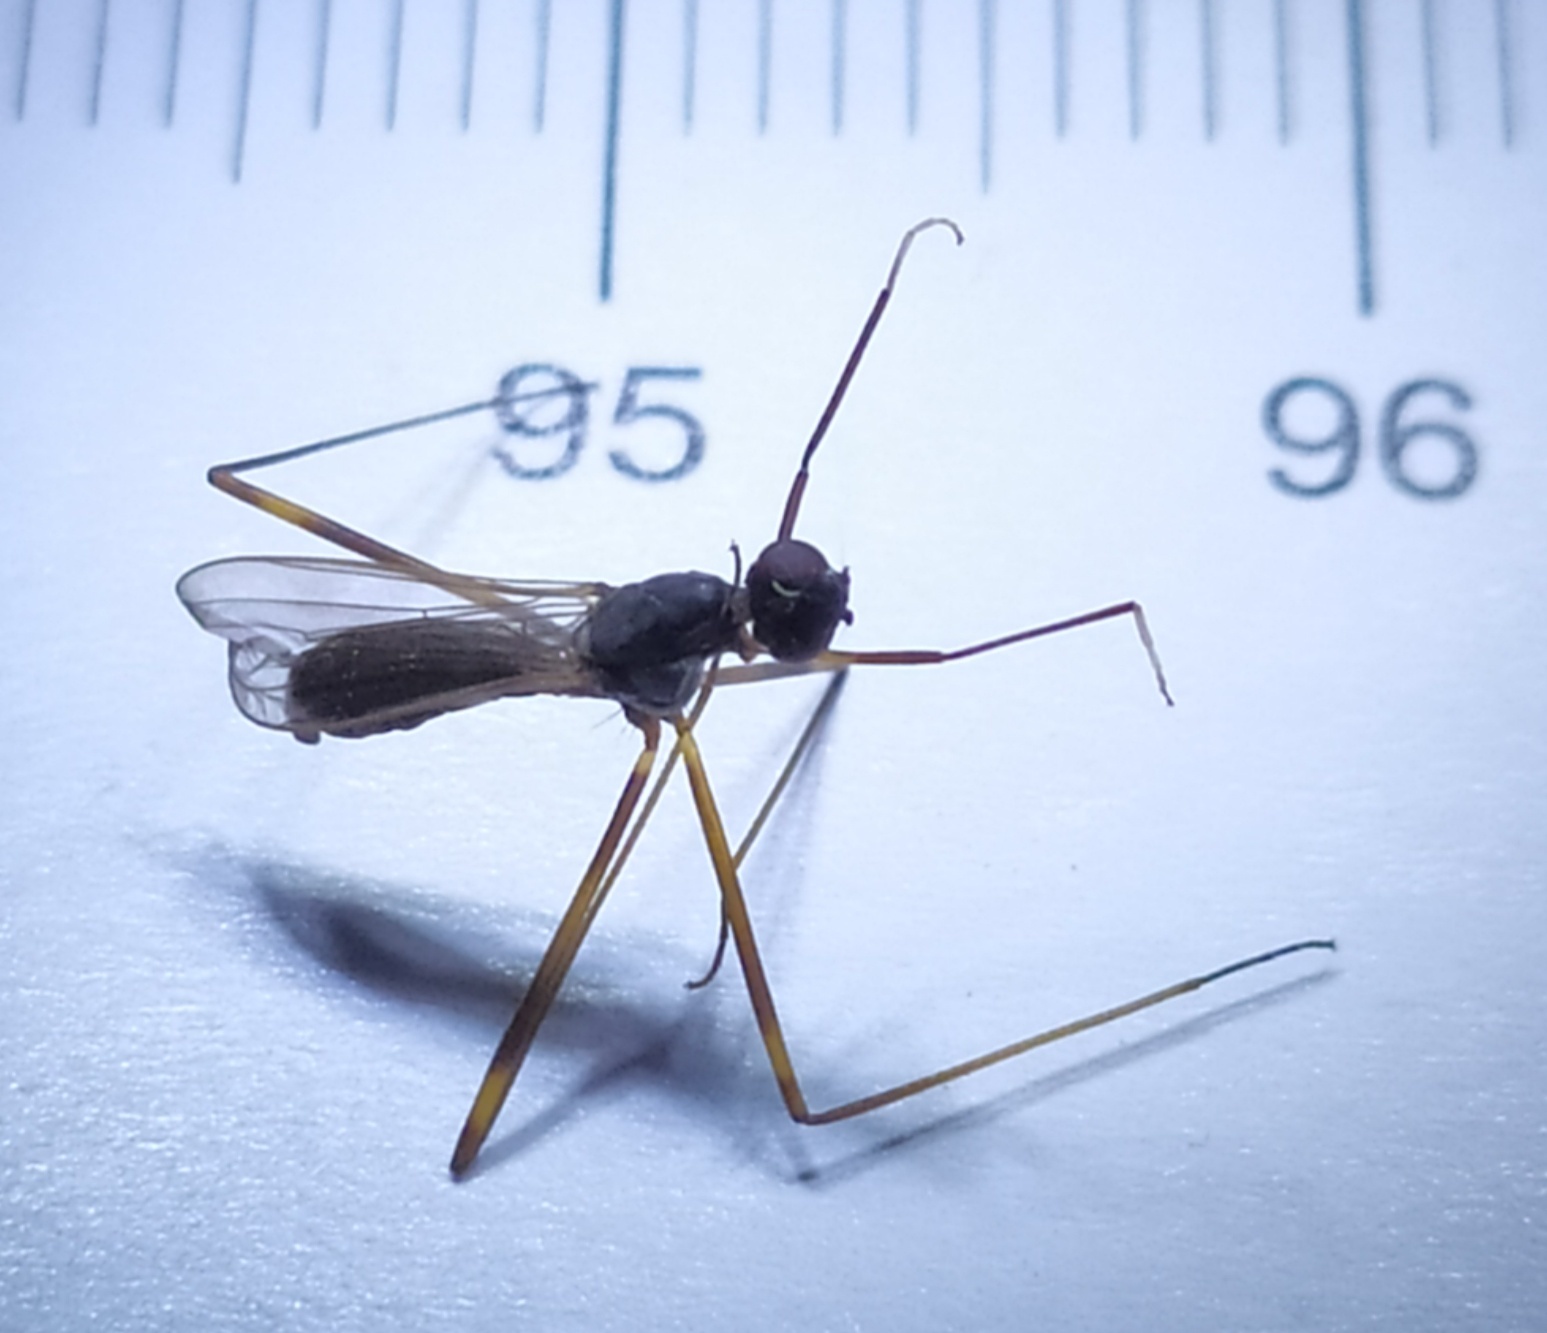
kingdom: Animalia
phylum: Arthropoda
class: Insecta
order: Diptera
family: Micropezidae
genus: Rainieria
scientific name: Rainieria latifrons
